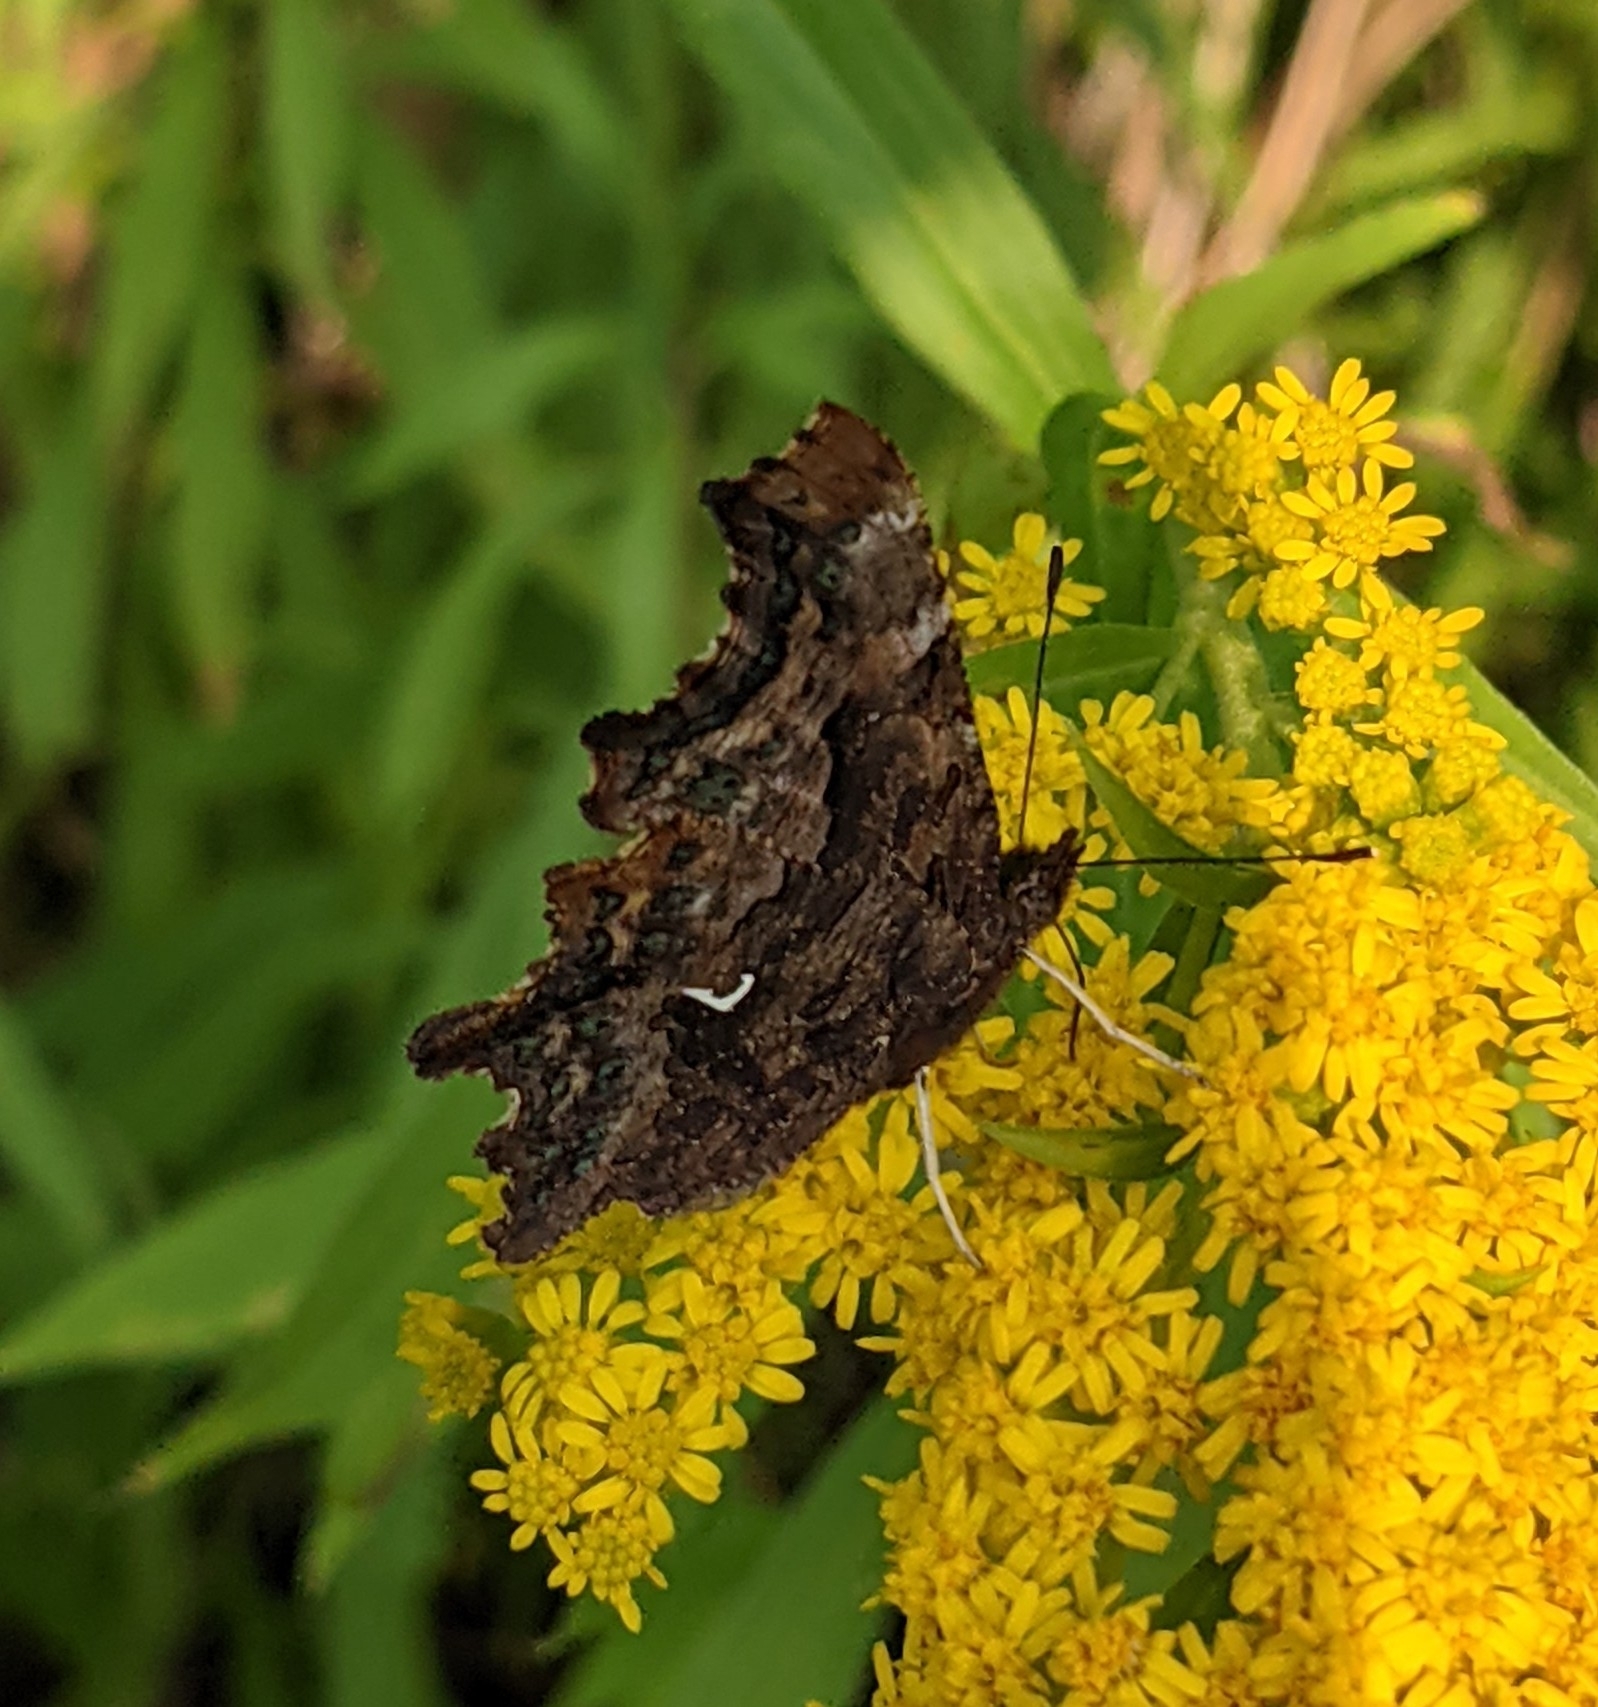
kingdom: Animalia
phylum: Arthropoda
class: Insecta
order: Lepidoptera
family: Nymphalidae
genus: Polygonia
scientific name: Polygonia c-album
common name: Comma
